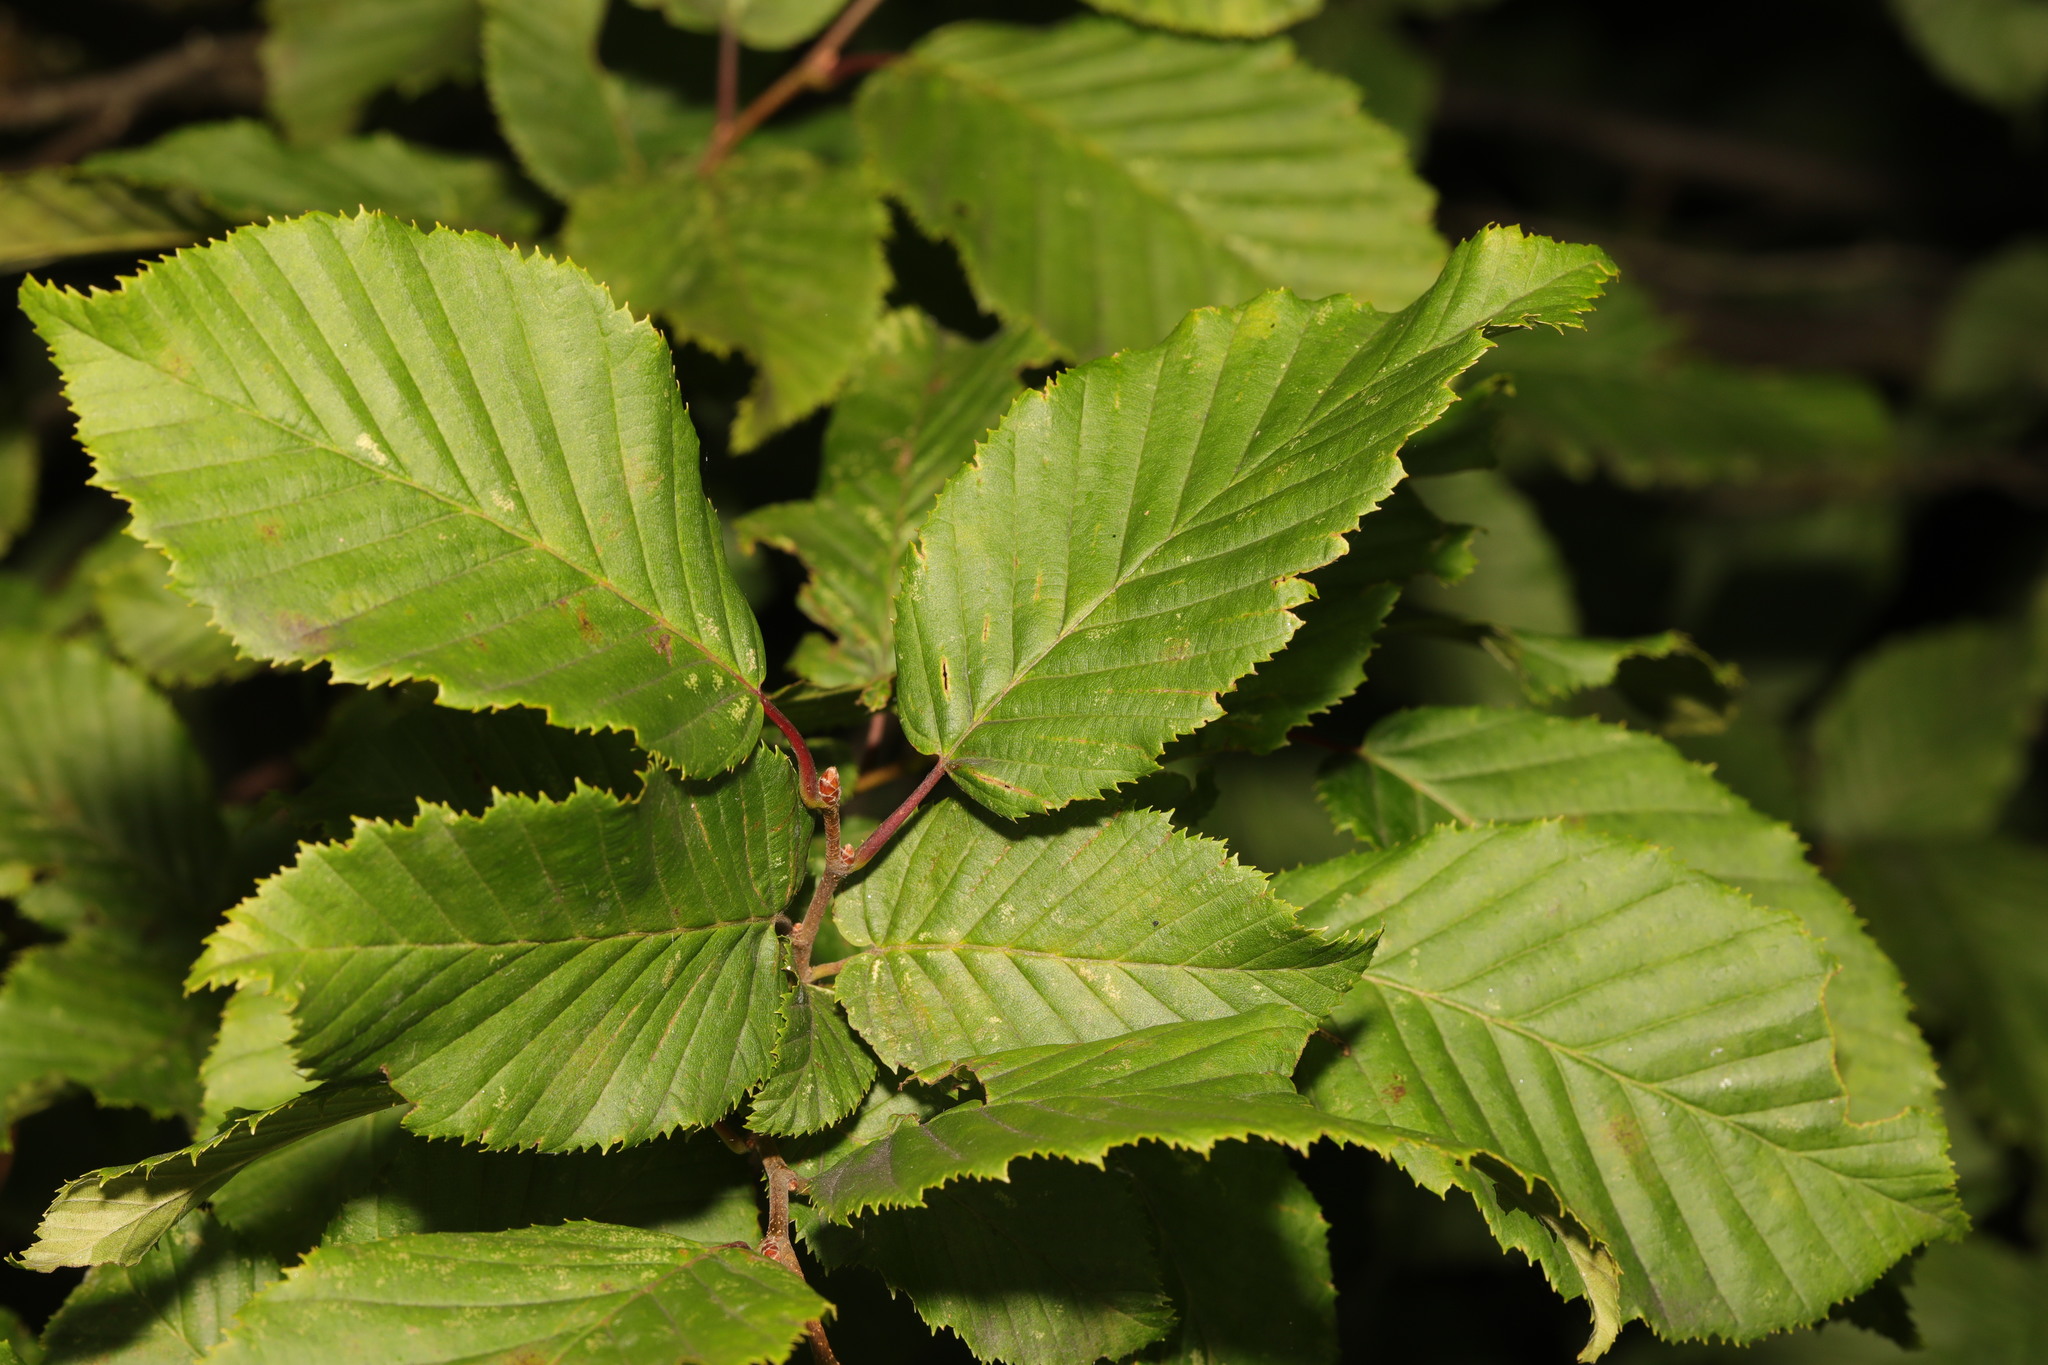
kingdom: Plantae
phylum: Tracheophyta
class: Magnoliopsida
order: Fagales
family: Betulaceae
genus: Carpinus
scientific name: Carpinus betulus
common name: Hornbeam
